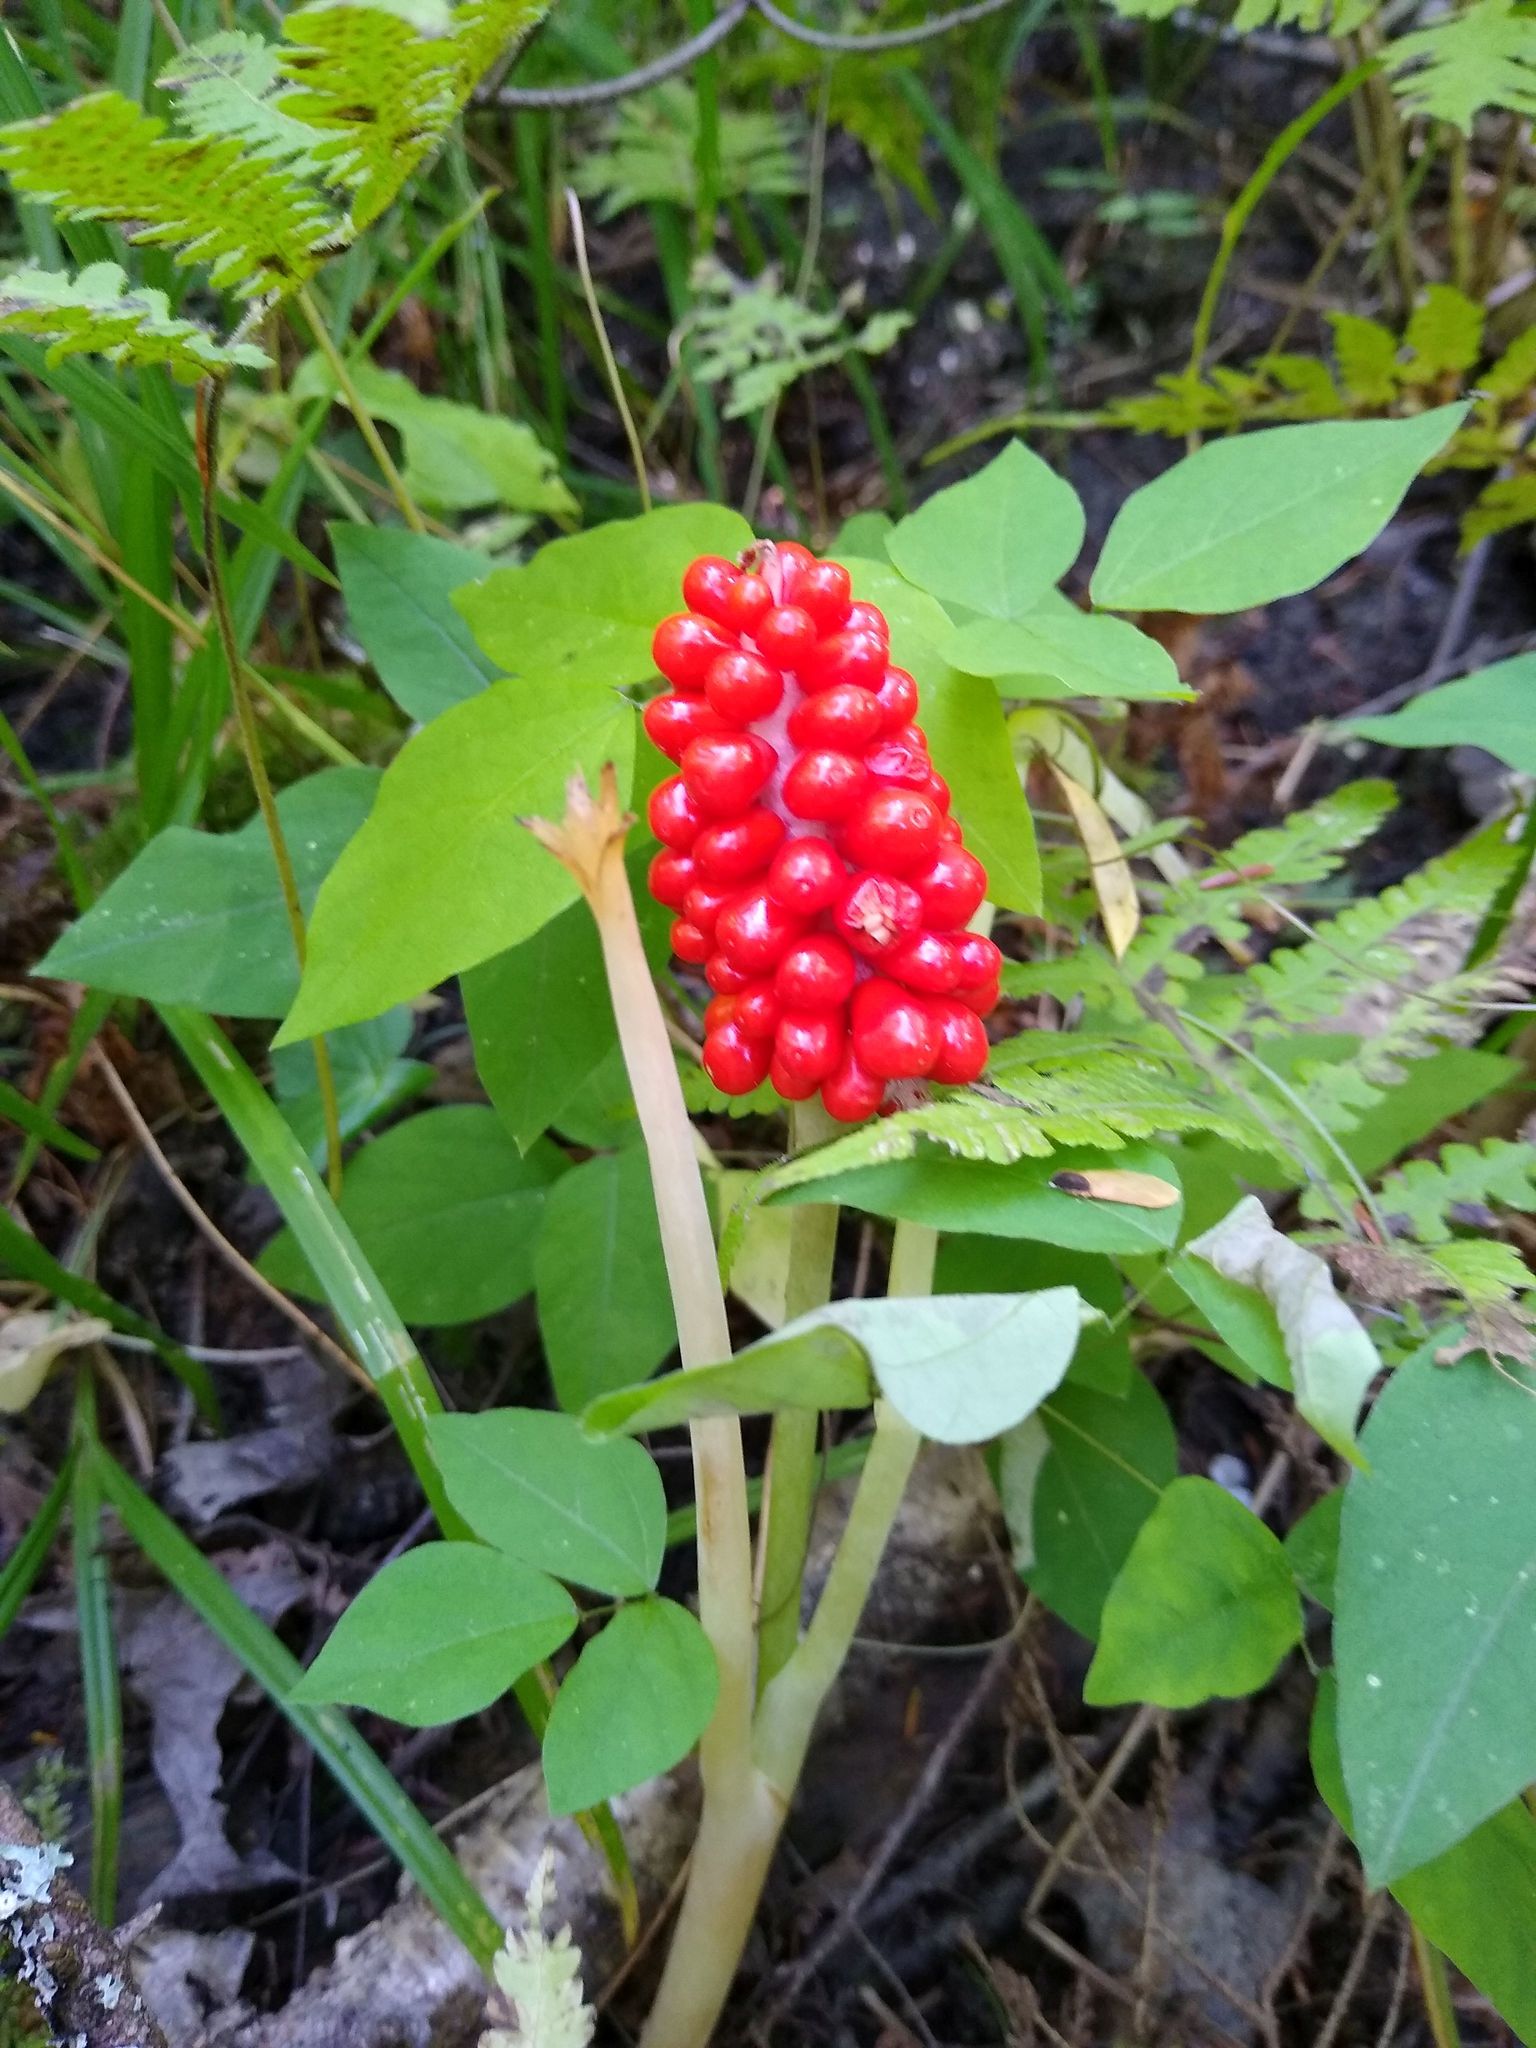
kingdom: Plantae
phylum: Tracheophyta
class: Liliopsida
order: Alismatales
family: Araceae
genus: Arisaema
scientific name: Arisaema triphyllum
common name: Jack-in-the-pulpit
